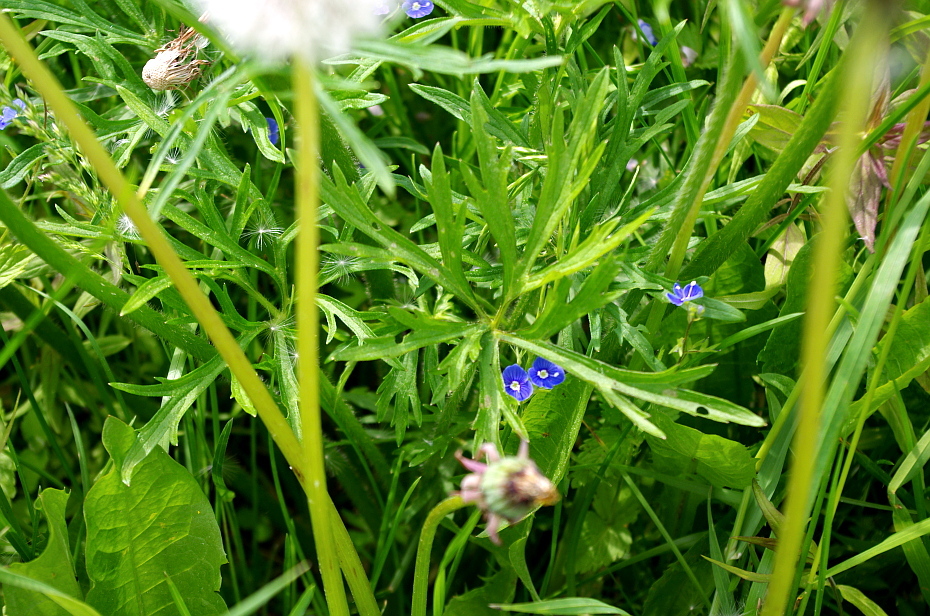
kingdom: Plantae
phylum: Tracheophyta
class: Magnoliopsida
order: Ranunculales
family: Ranunculaceae
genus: Ranunculus
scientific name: Ranunculus polyanthemos
